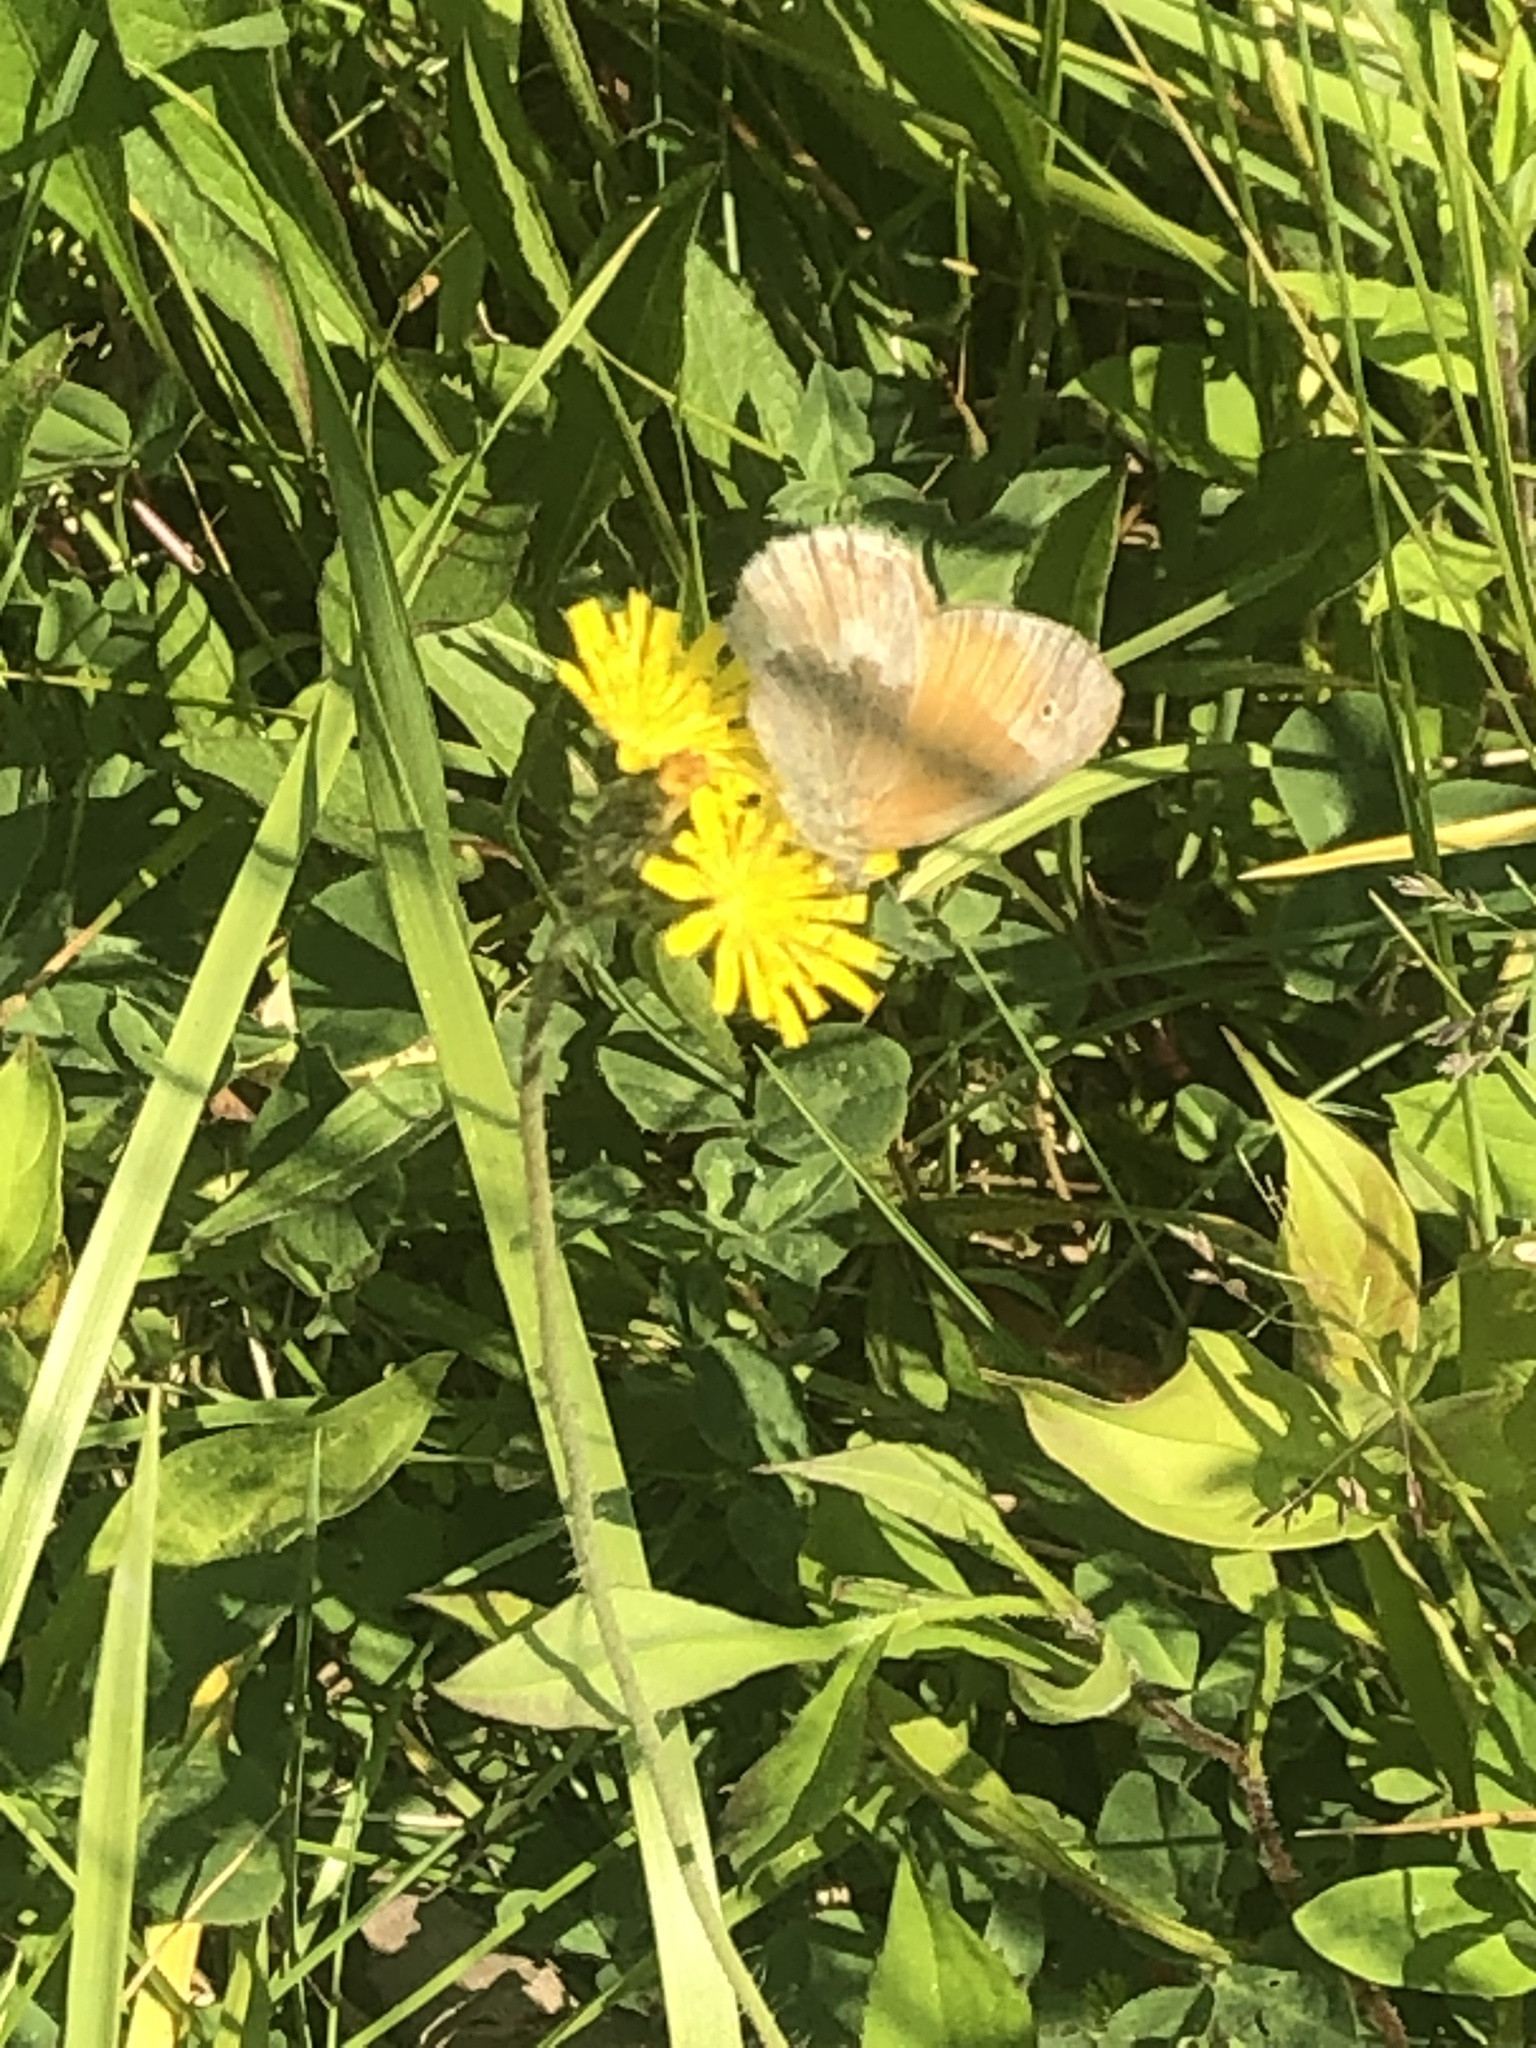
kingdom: Animalia
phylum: Arthropoda
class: Insecta
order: Lepidoptera
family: Nymphalidae
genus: Coenonympha
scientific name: Coenonympha california
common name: Common ringlet
